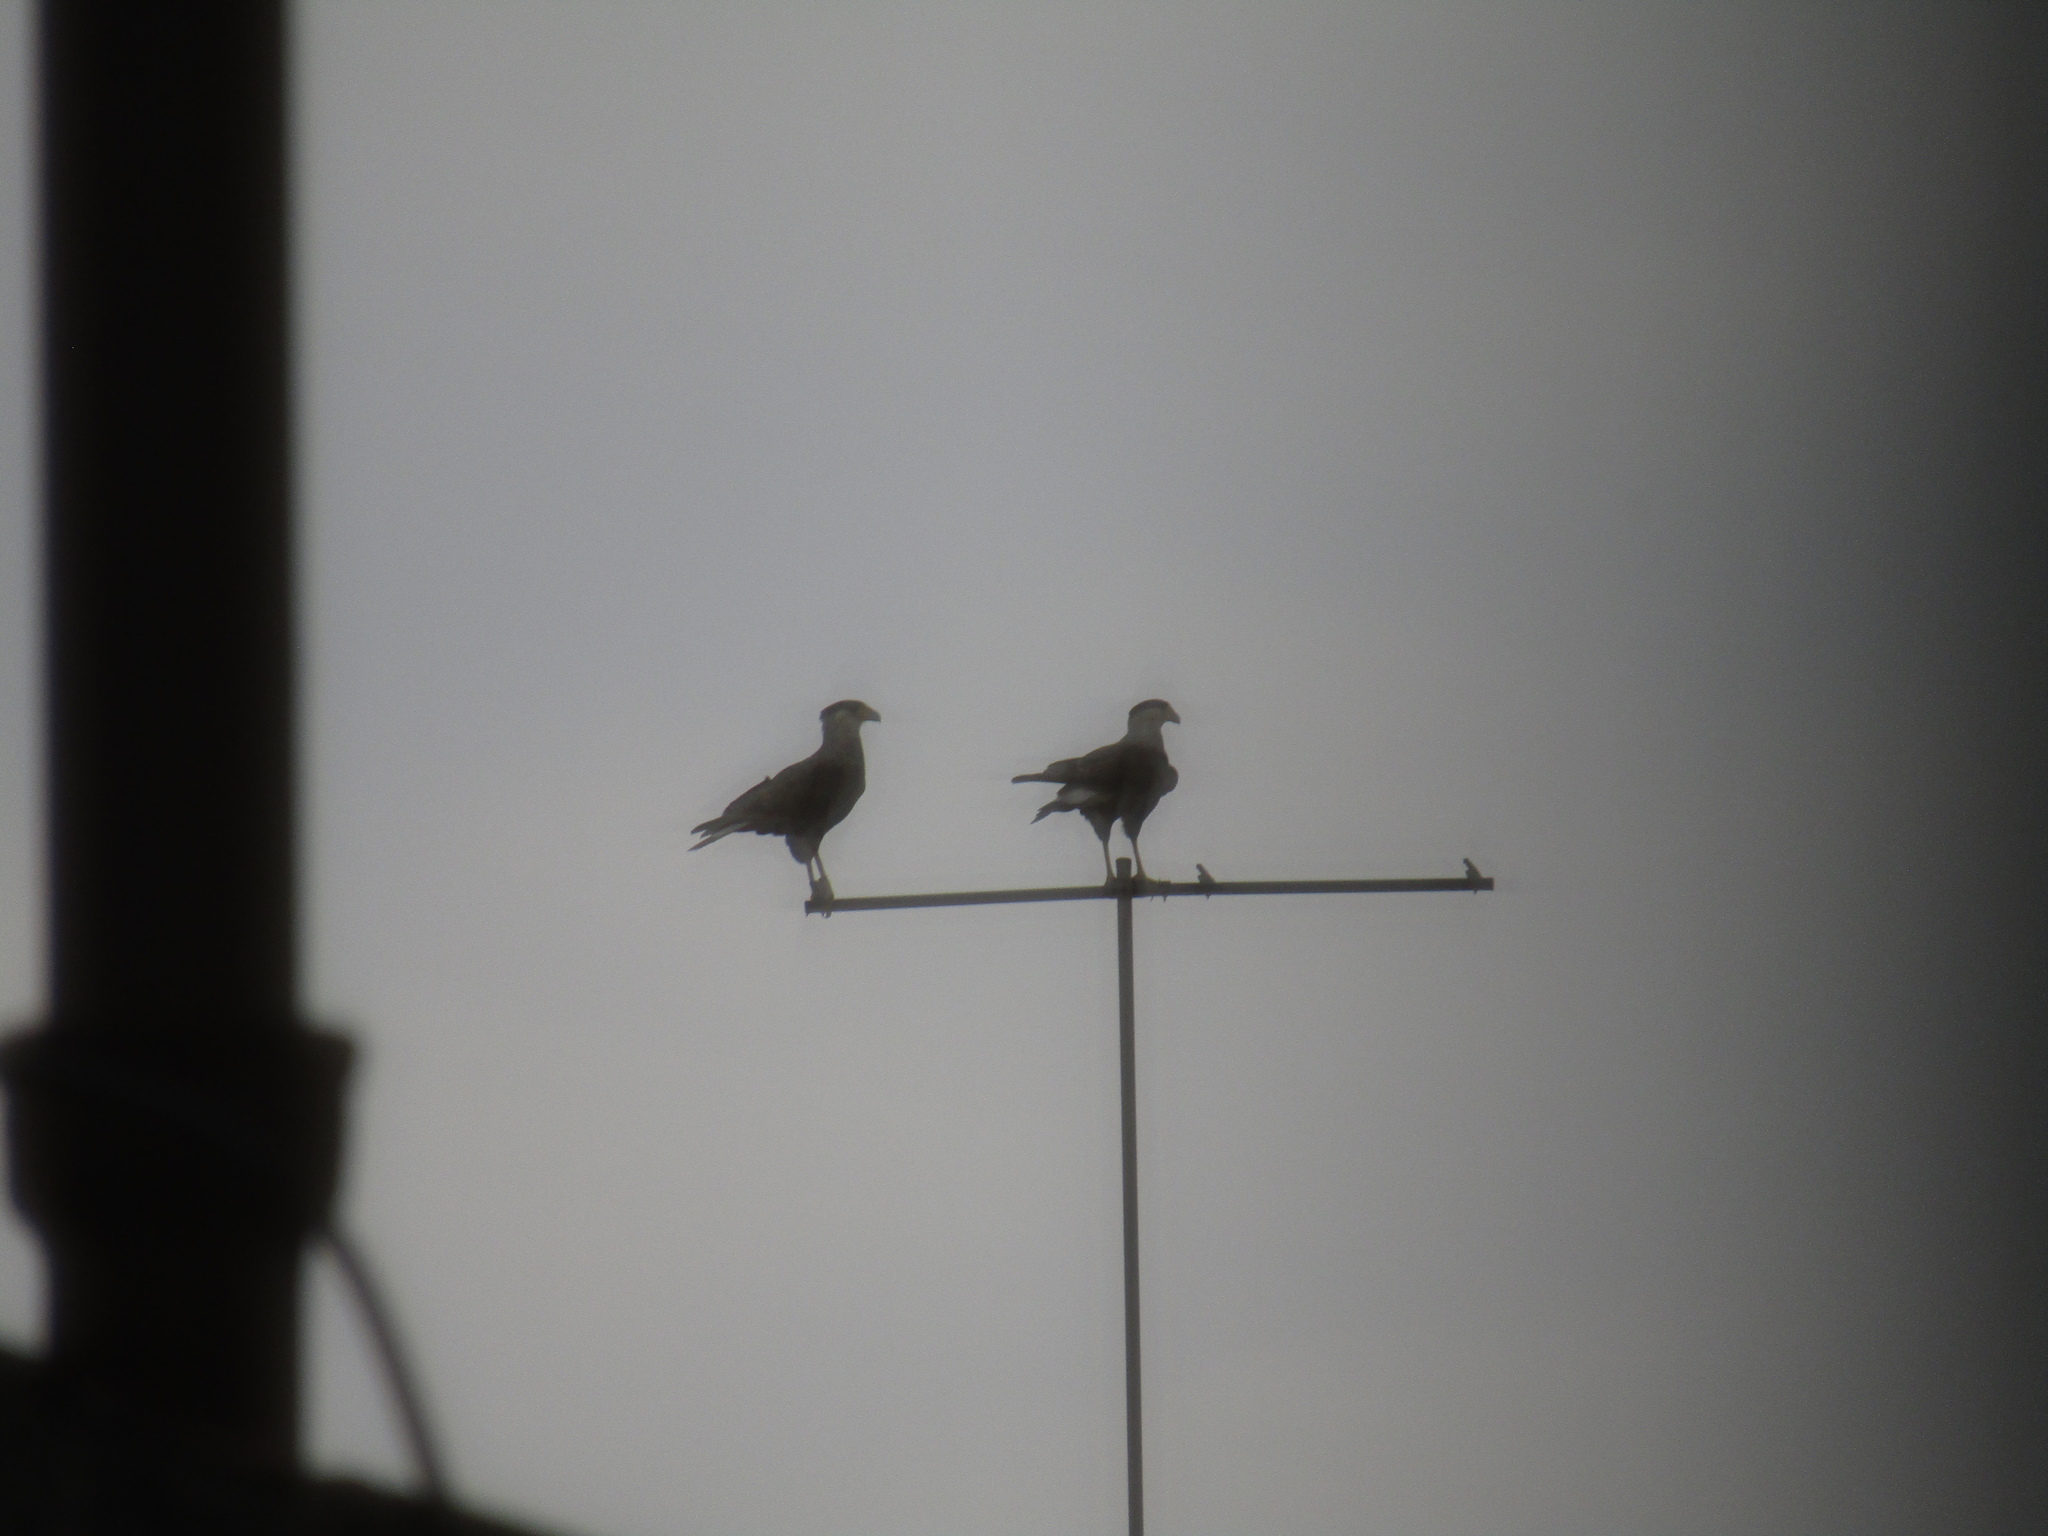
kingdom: Animalia
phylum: Chordata
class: Aves
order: Falconiformes
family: Falconidae
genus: Caracara
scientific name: Caracara plancus
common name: Southern caracara
